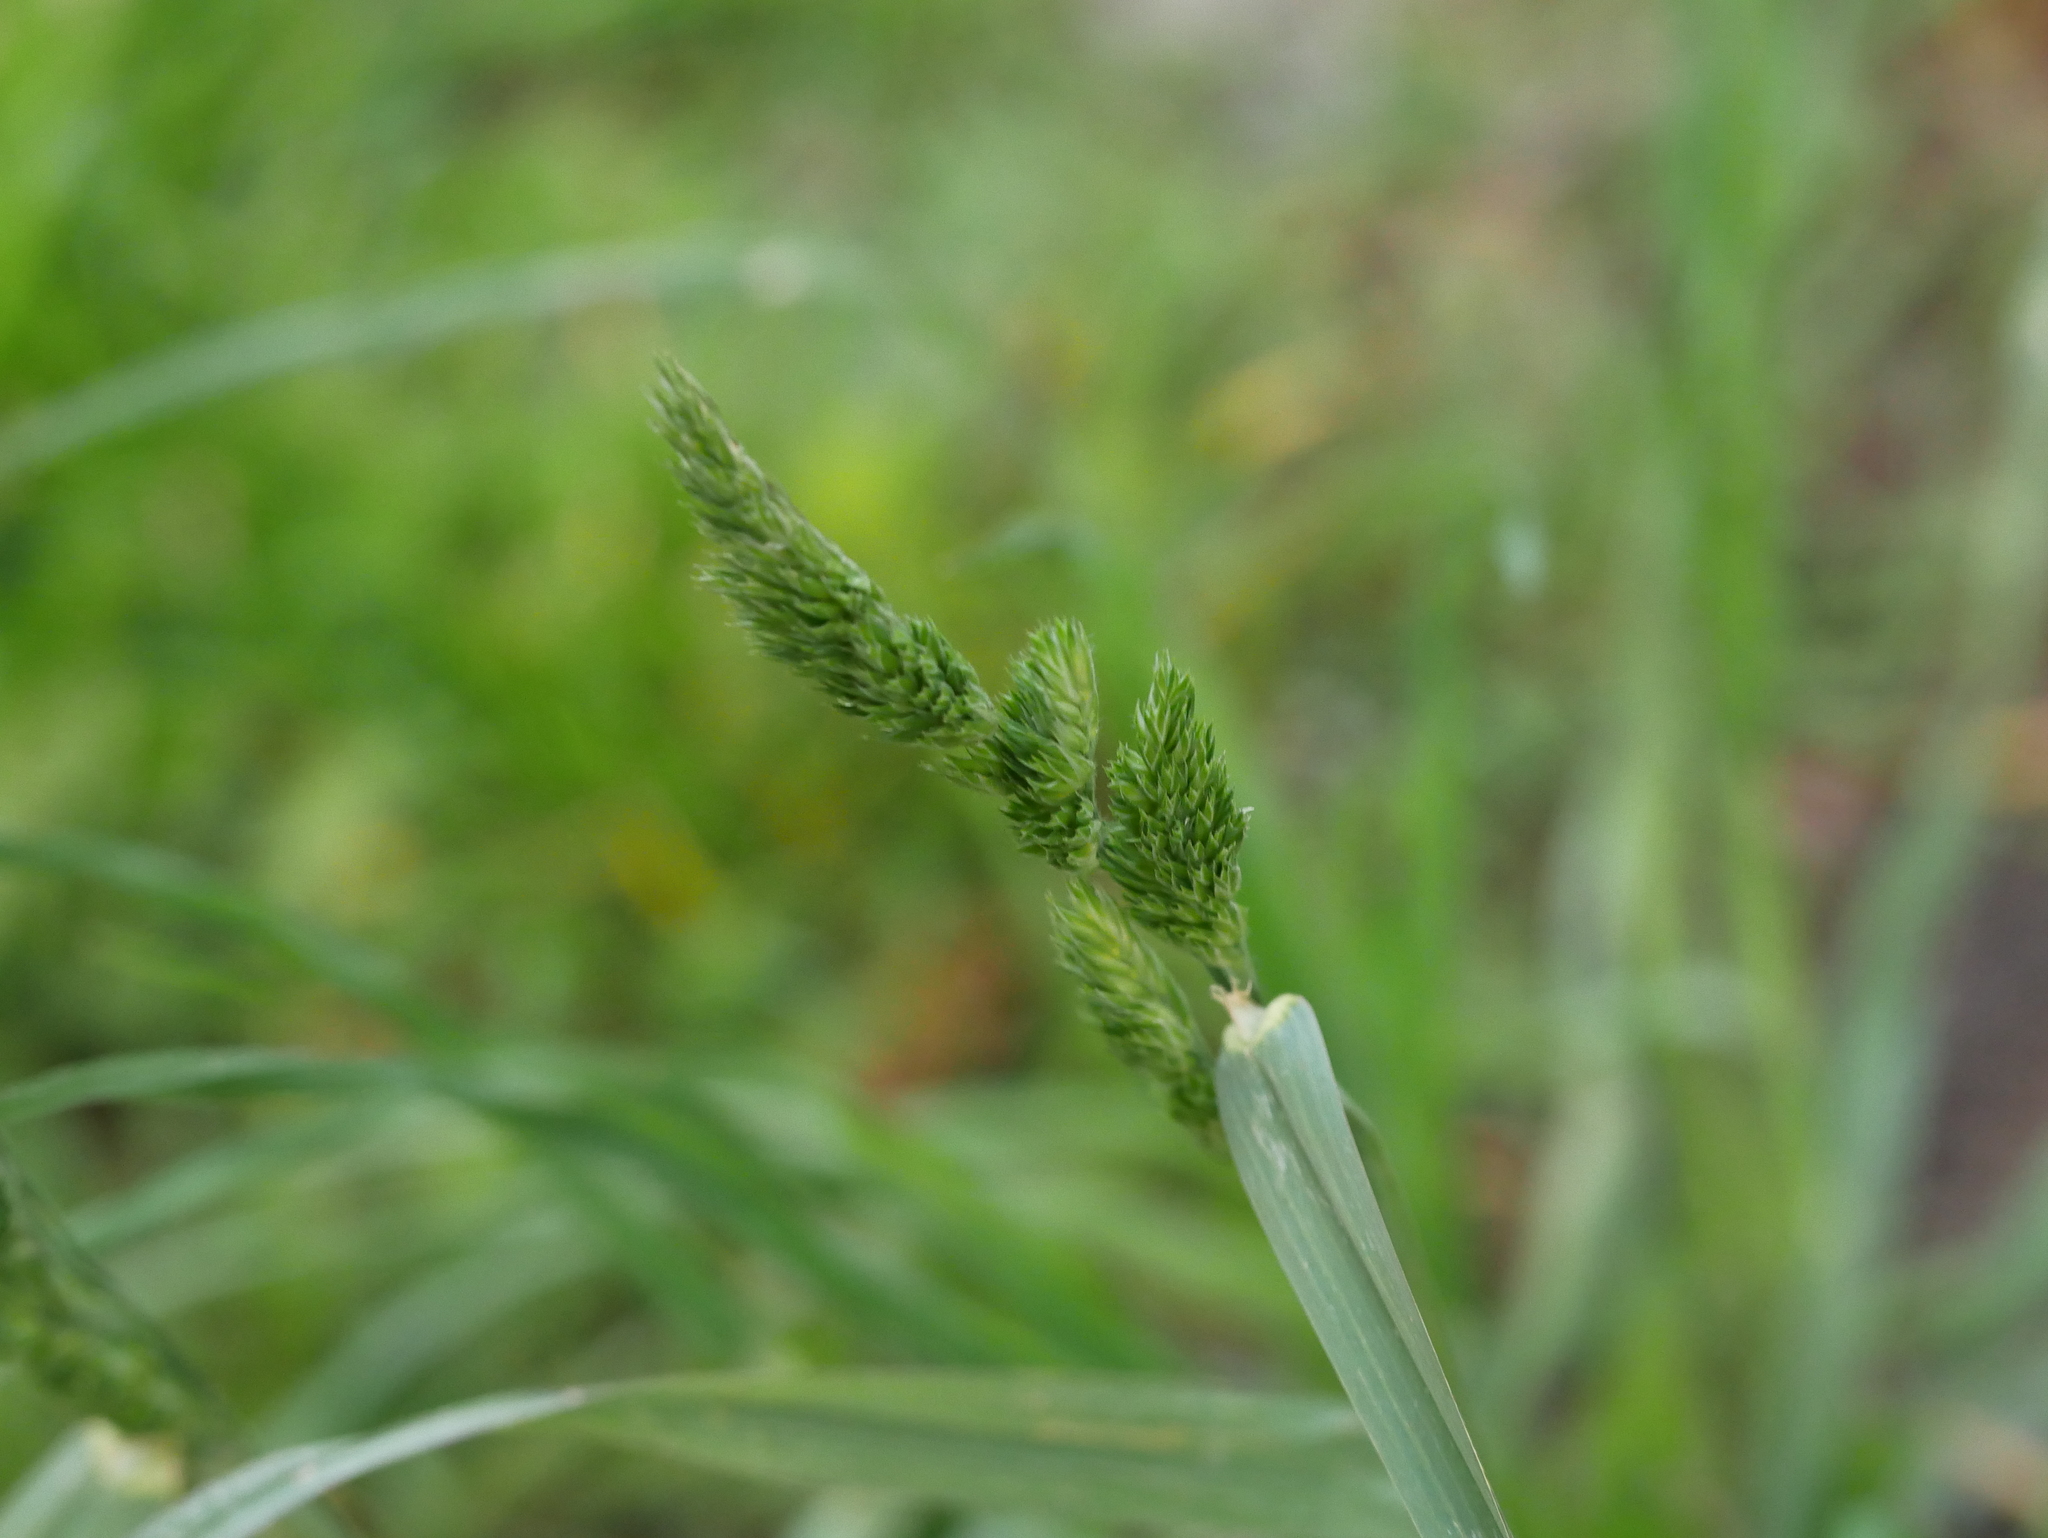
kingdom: Plantae
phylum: Tracheophyta
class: Liliopsida
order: Poales
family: Poaceae
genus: Dactylis
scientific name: Dactylis glomerata
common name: Orchardgrass
